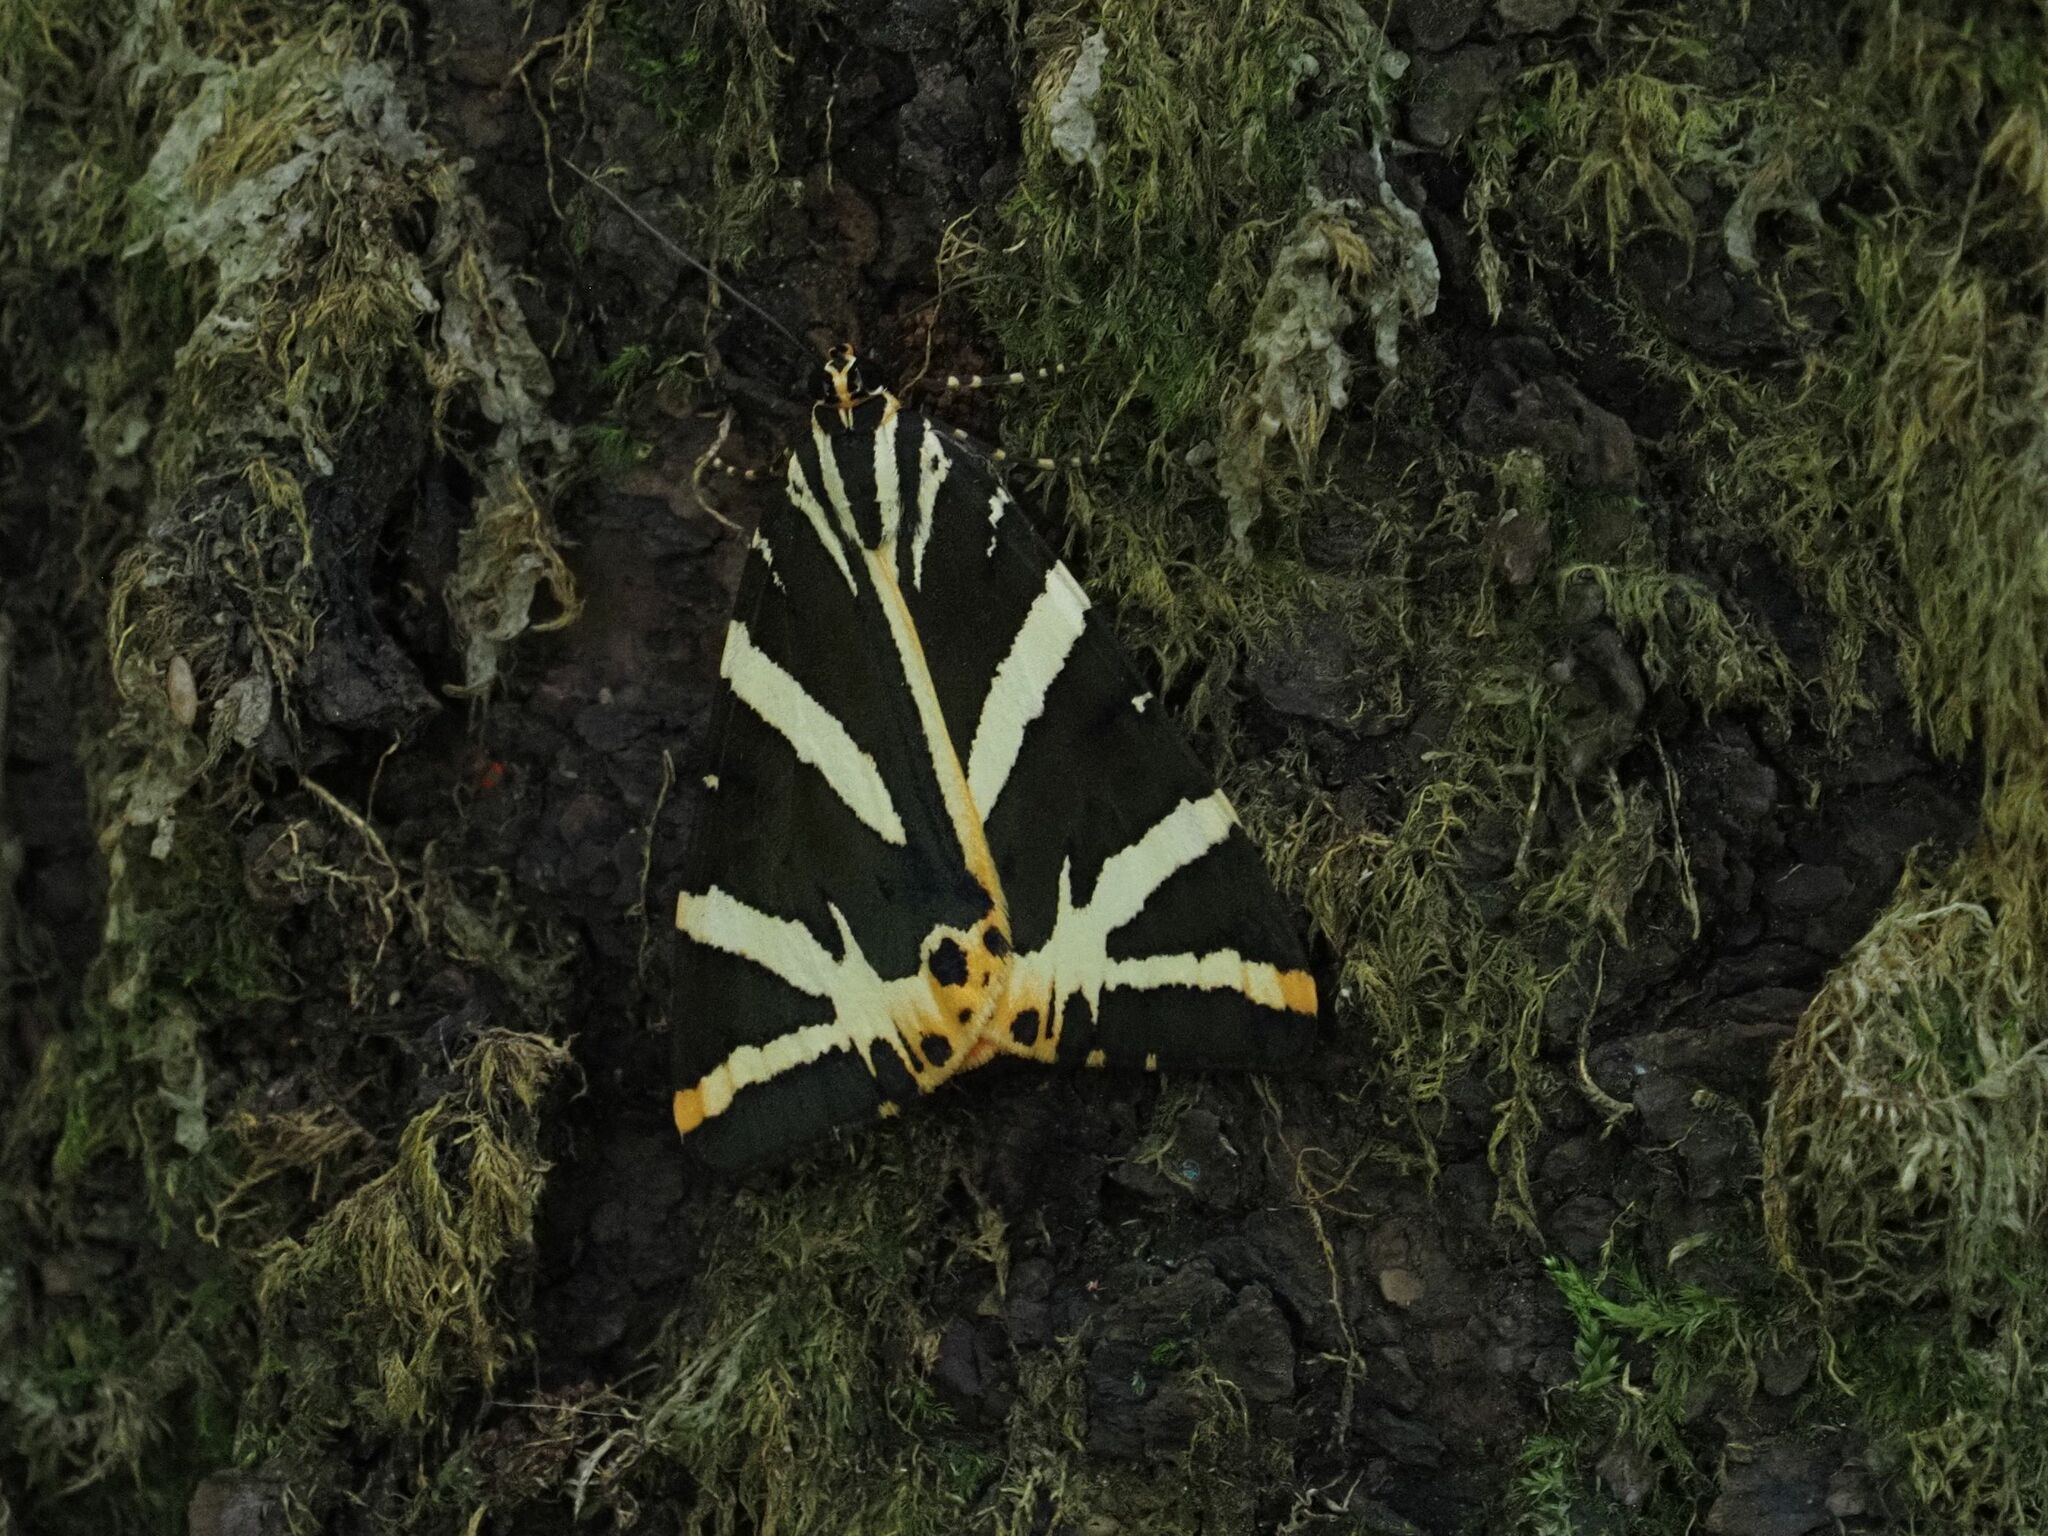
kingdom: Animalia
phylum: Arthropoda
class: Insecta
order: Lepidoptera
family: Erebidae
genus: Euplagia
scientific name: Euplagia quadripunctaria
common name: Jersey tiger
